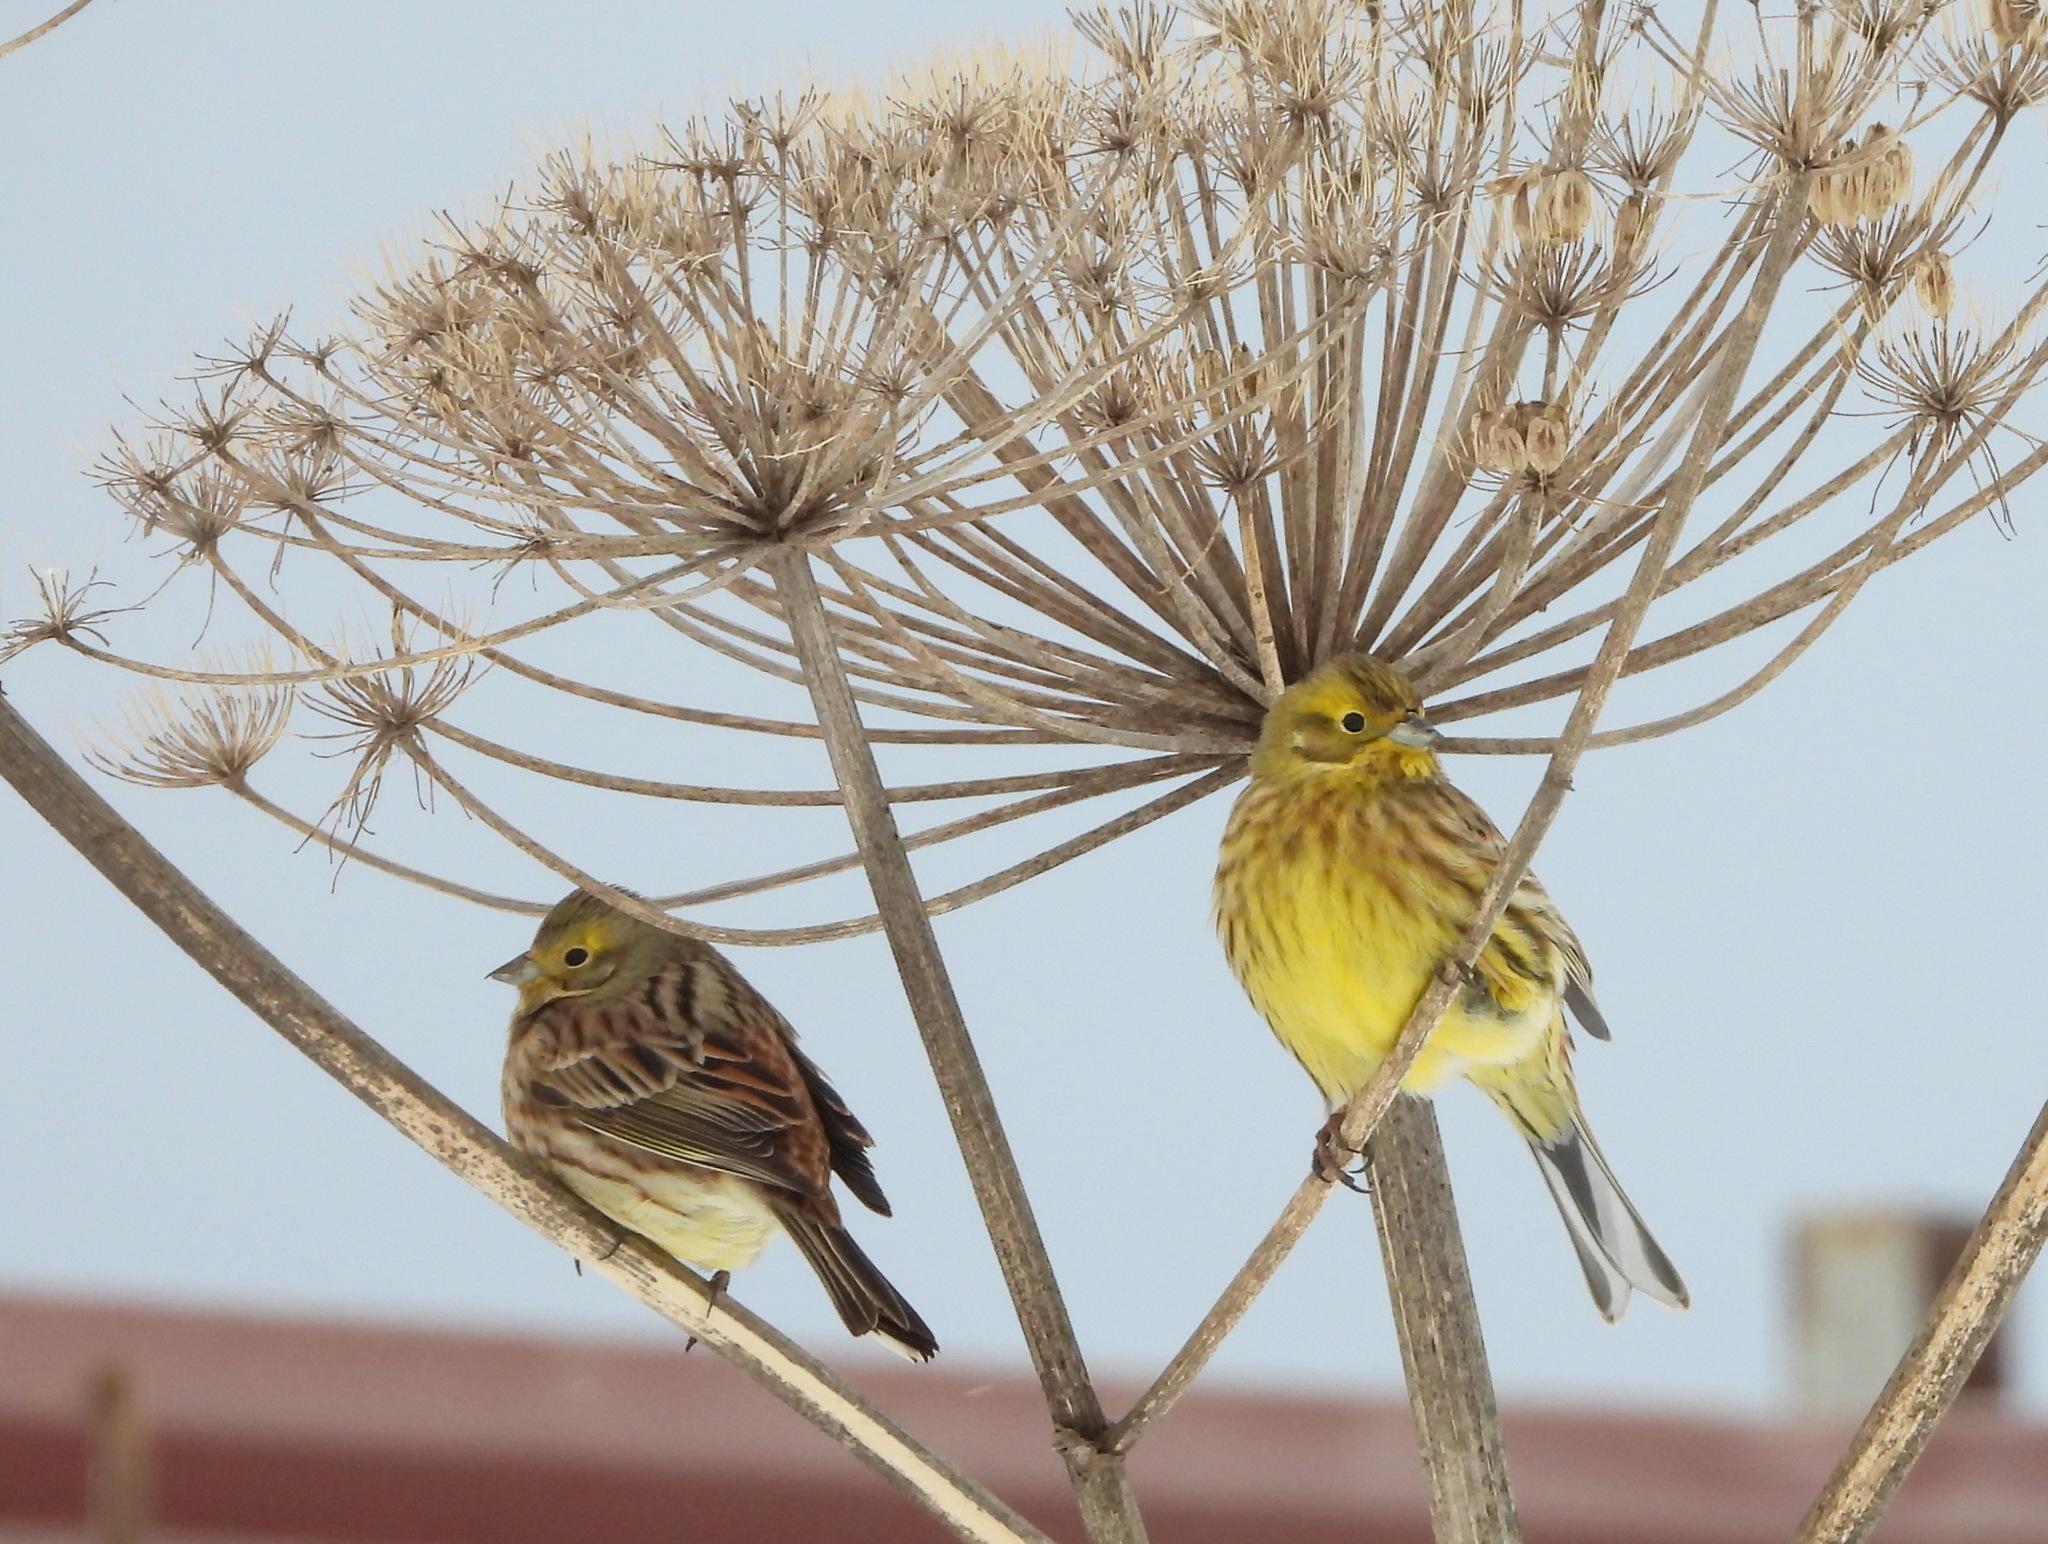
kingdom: Animalia
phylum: Chordata
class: Aves
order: Passeriformes
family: Emberizidae
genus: Emberiza
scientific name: Emberiza citrinella
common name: Yellowhammer
